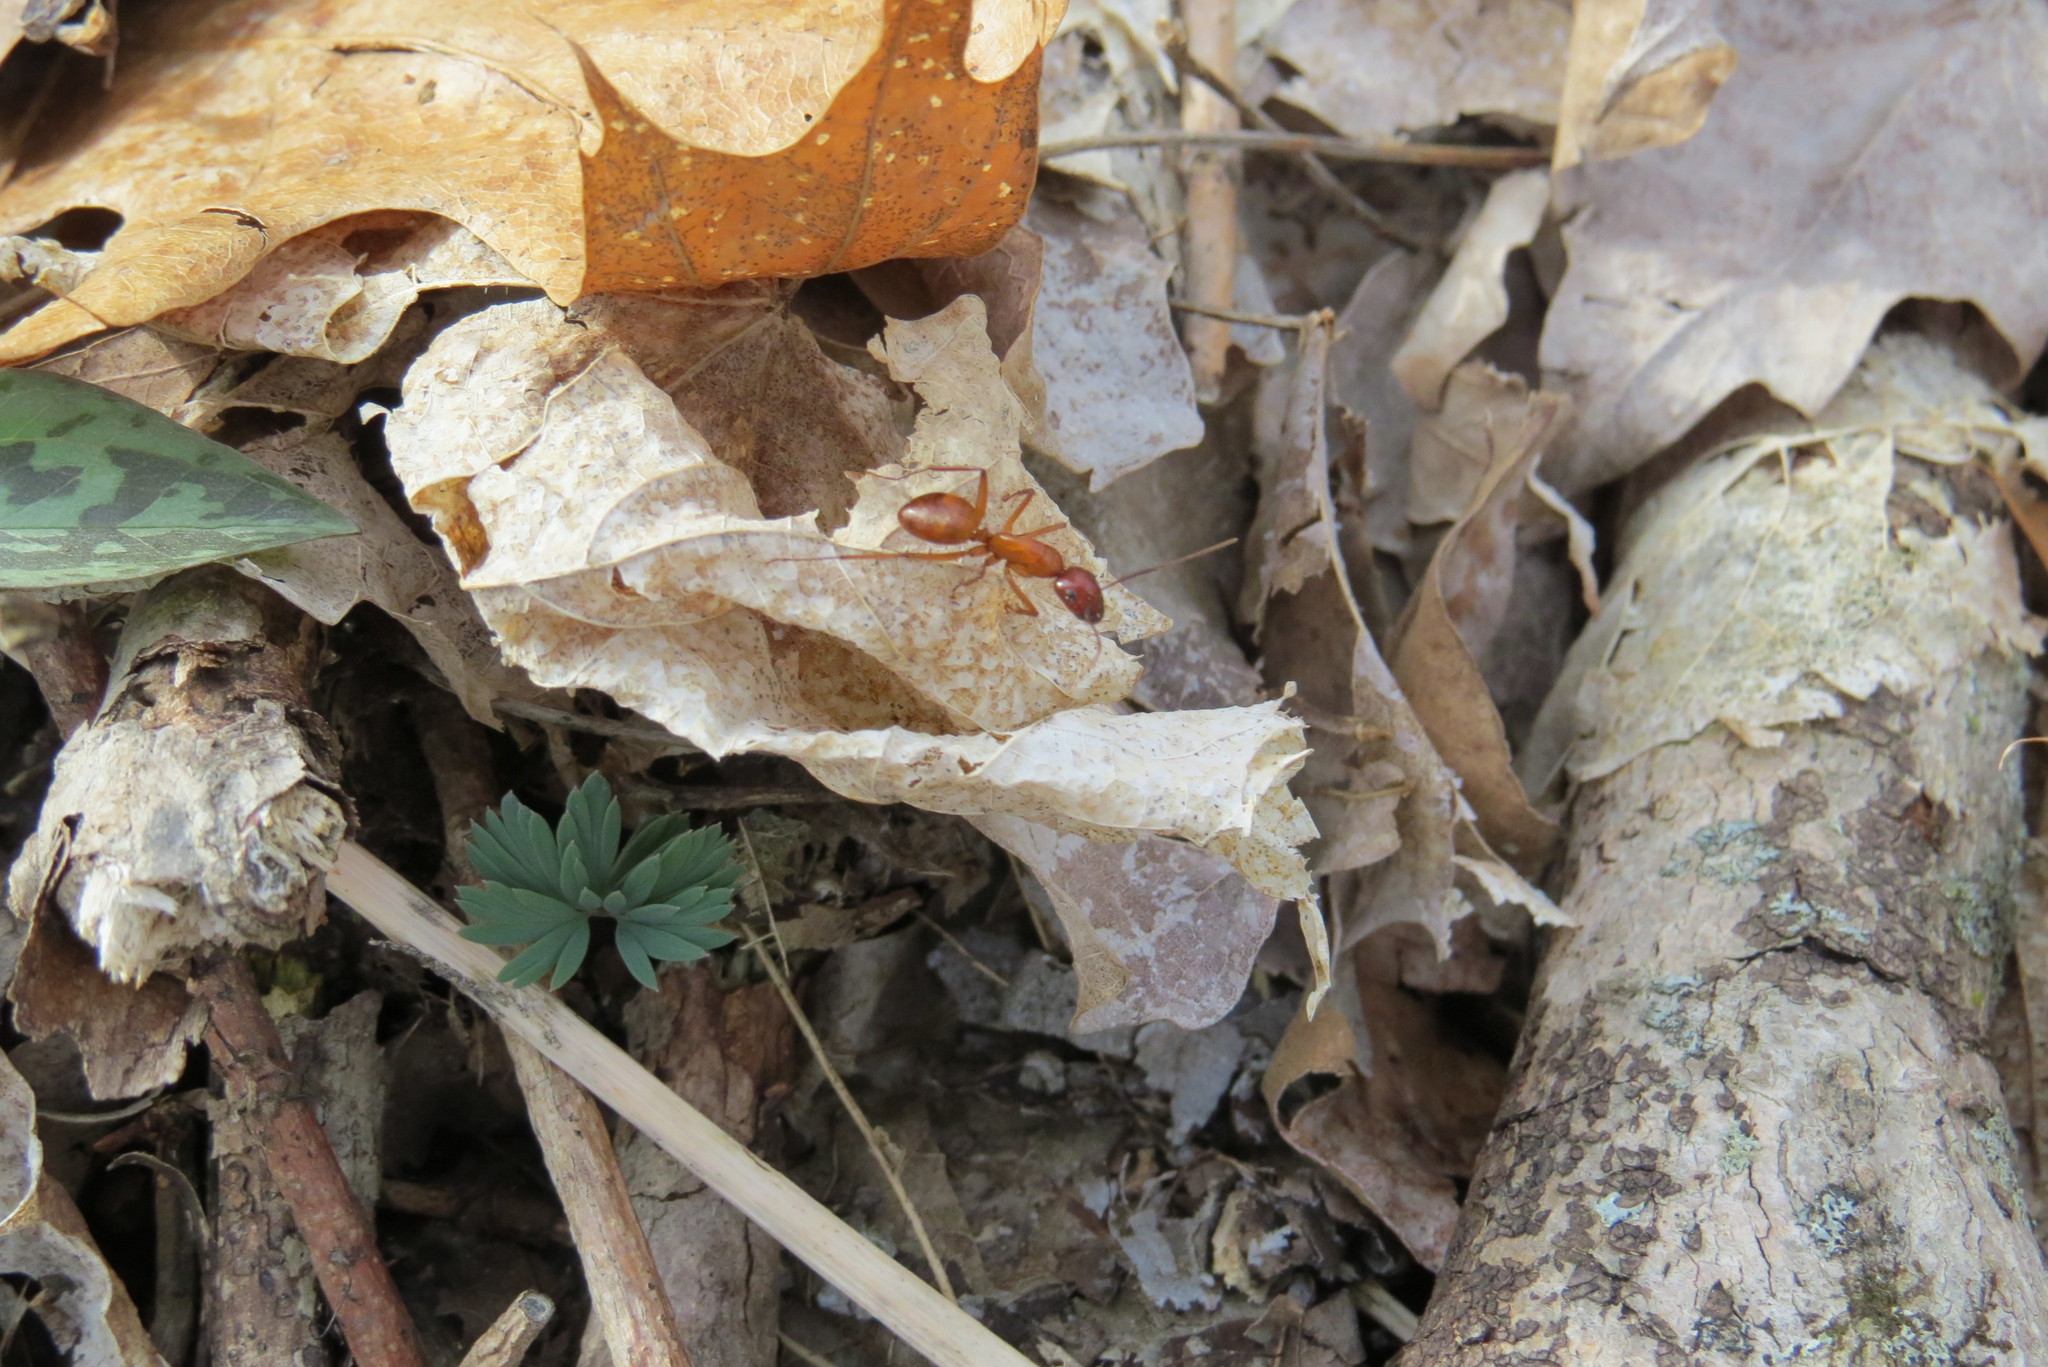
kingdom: Animalia
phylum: Arthropoda
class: Insecta
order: Hymenoptera
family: Formicidae
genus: Camponotus
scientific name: Camponotus castaneus
